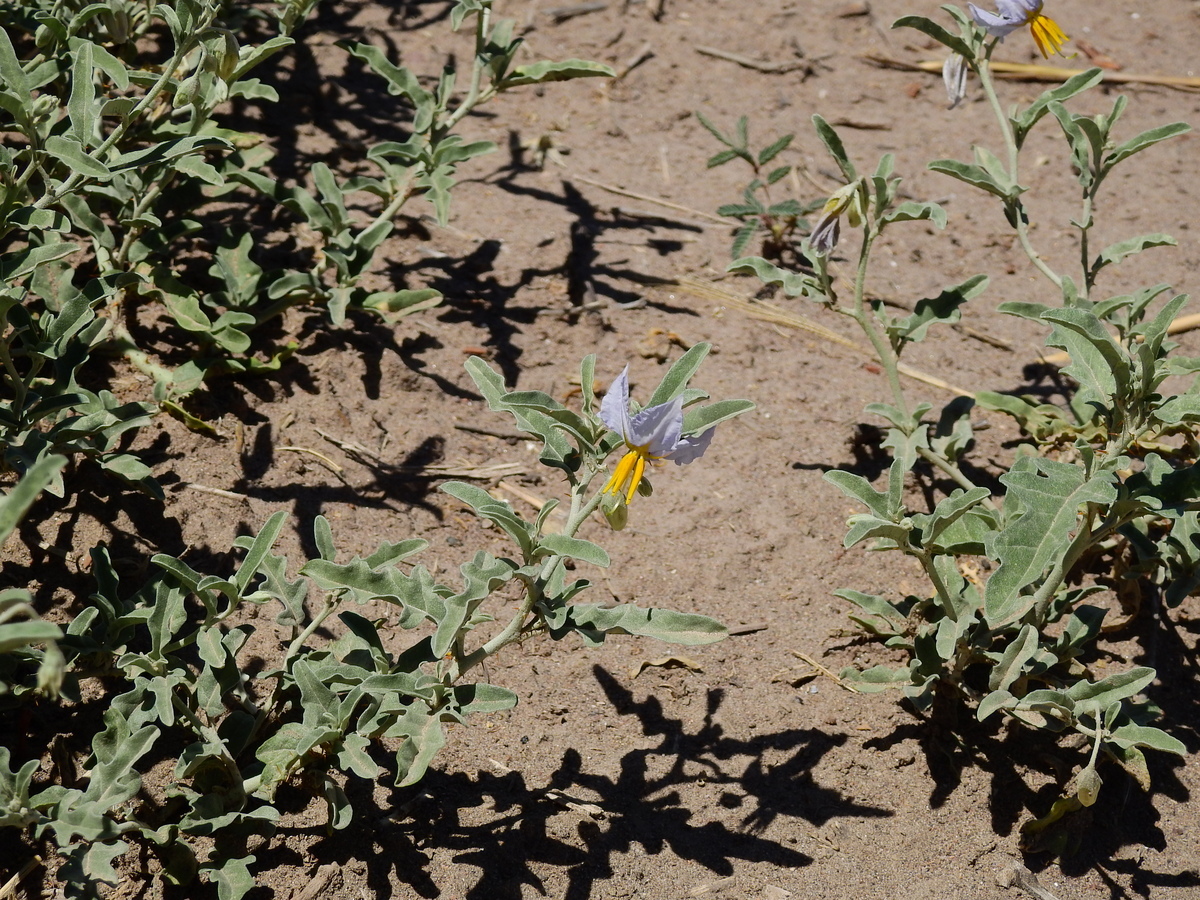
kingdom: Plantae
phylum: Tracheophyta
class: Magnoliopsida
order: Solanales
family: Solanaceae
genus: Solanum
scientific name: Solanum elaeagnifolium
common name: Silverleaf nightshade
